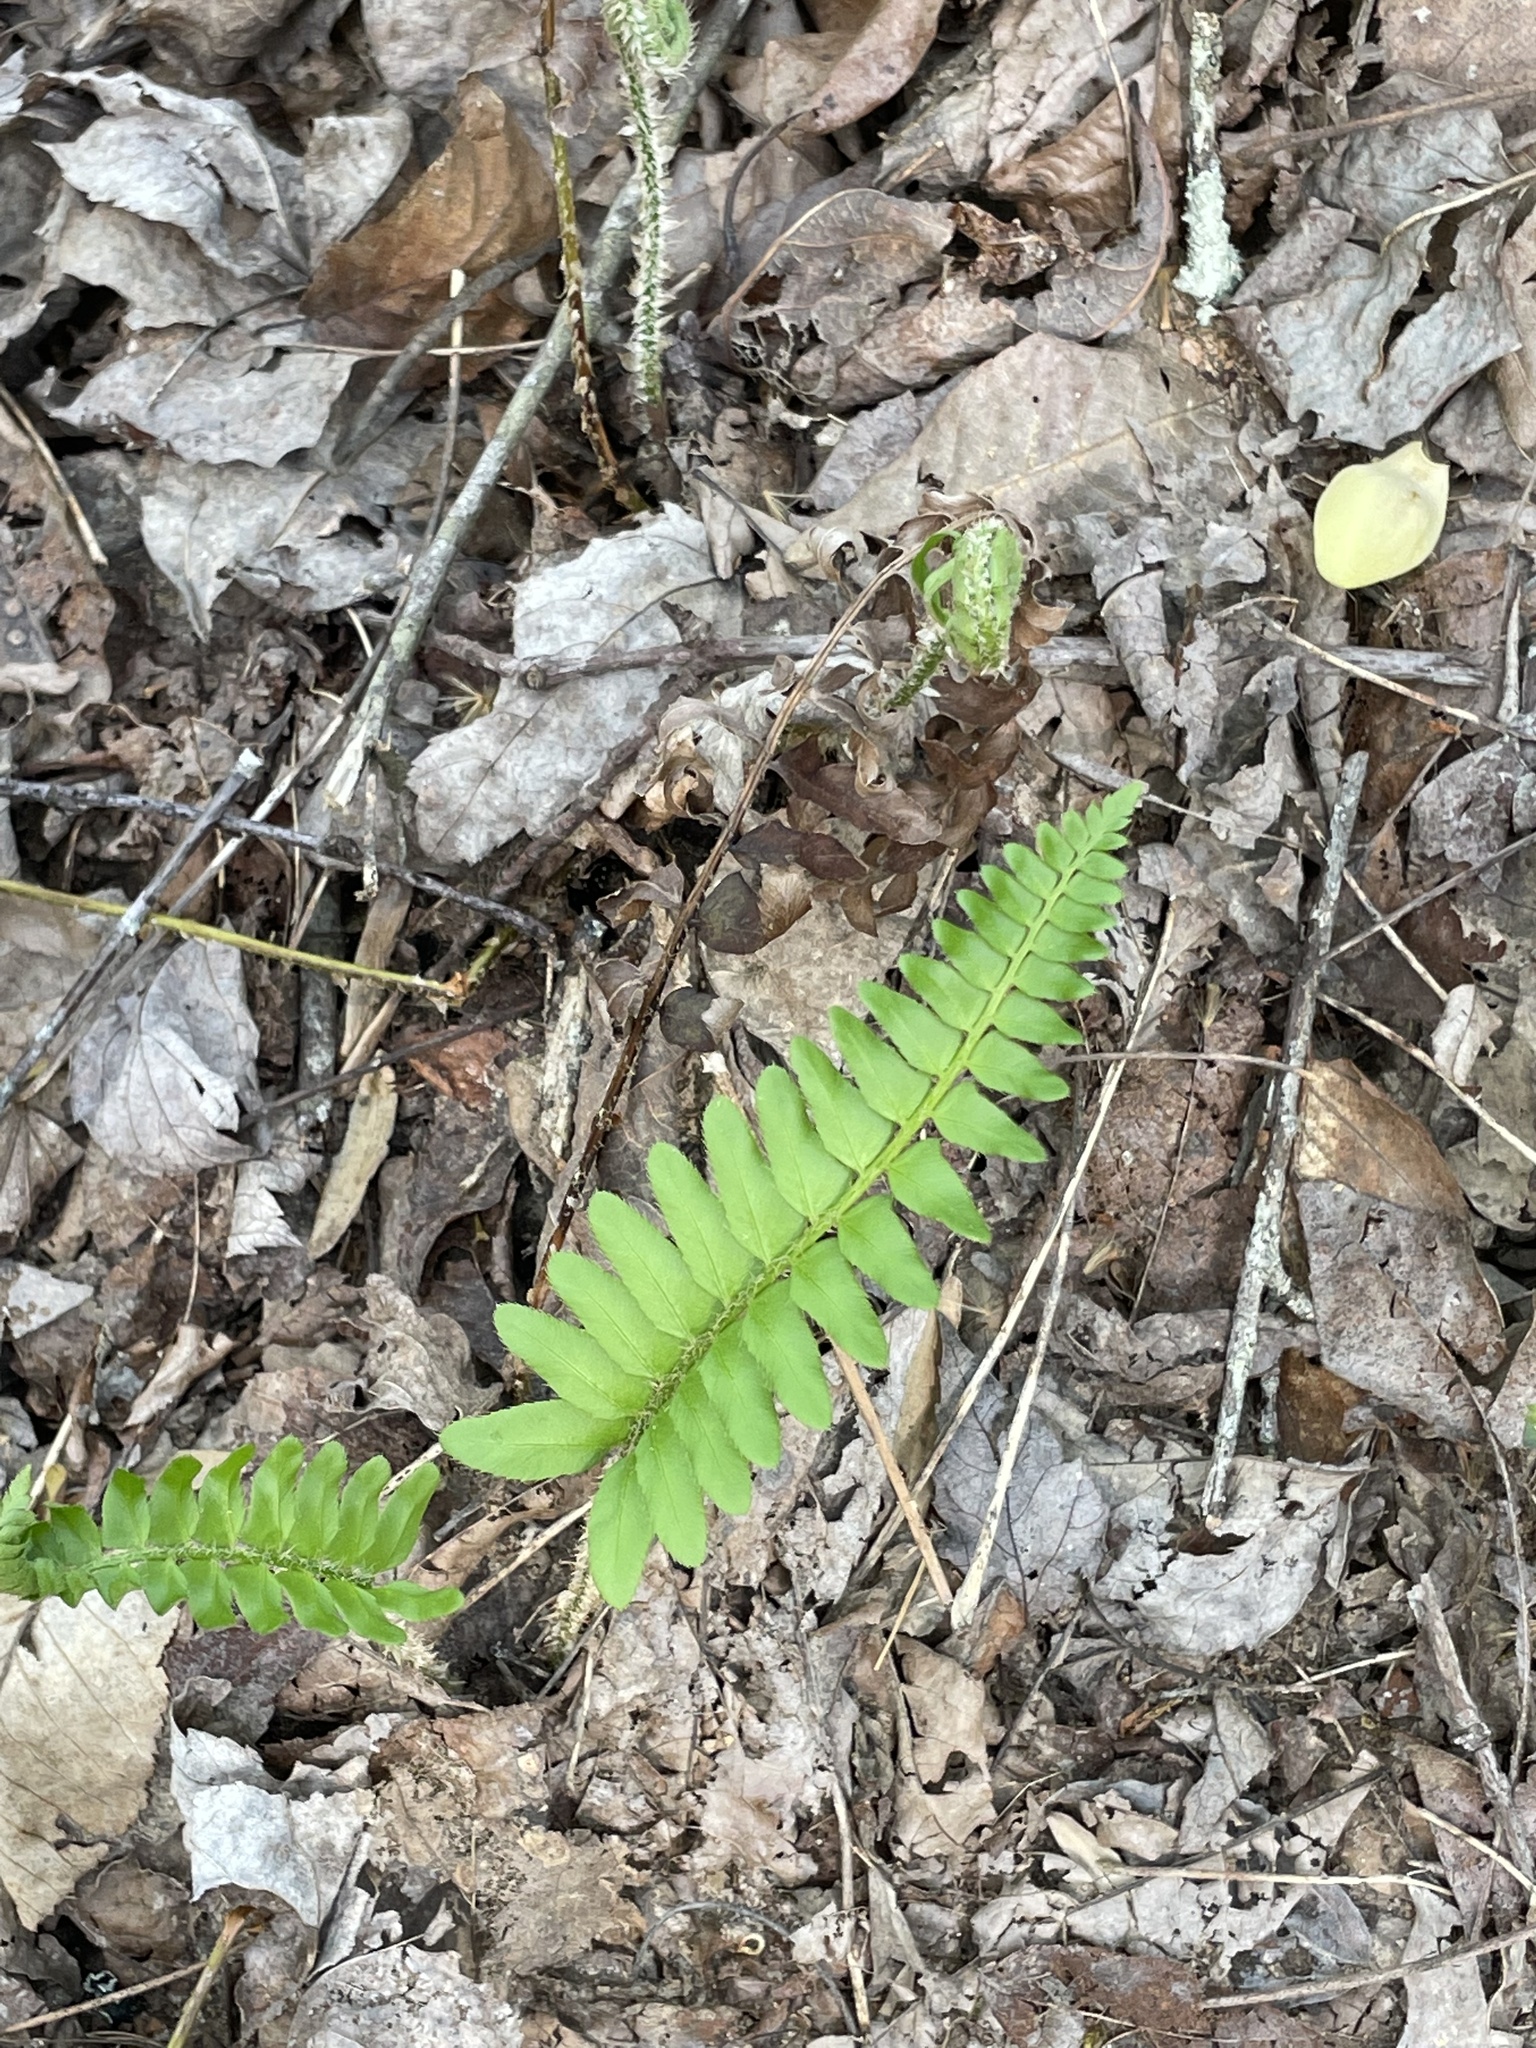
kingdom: Plantae
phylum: Tracheophyta
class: Polypodiopsida
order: Polypodiales
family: Dryopteridaceae
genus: Polystichum
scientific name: Polystichum acrostichoides
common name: Christmas fern
